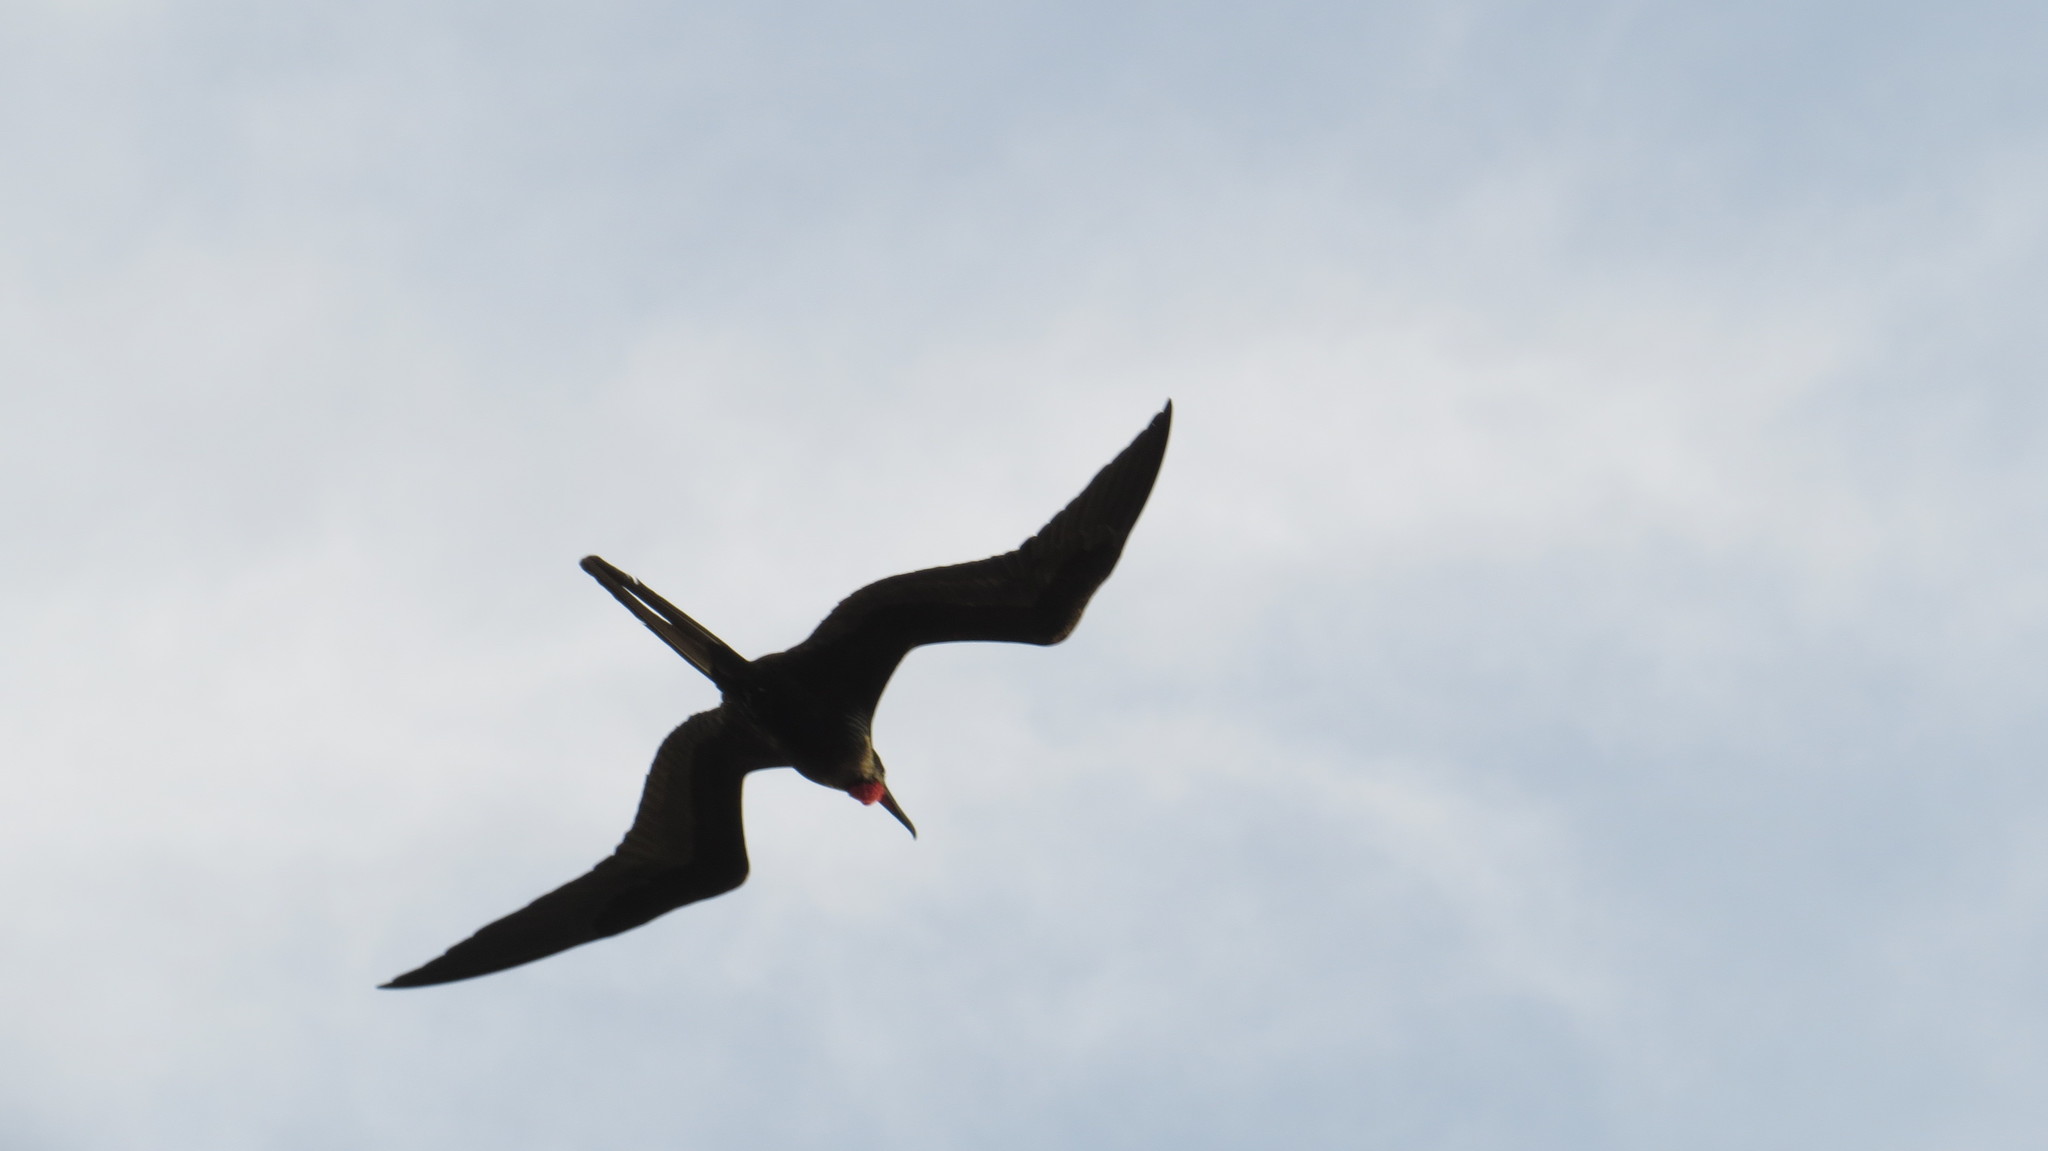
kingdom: Animalia
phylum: Chordata
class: Aves
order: Suliformes
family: Fregatidae
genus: Fregata
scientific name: Fregata magnificens
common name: Magnificent frigatebird
